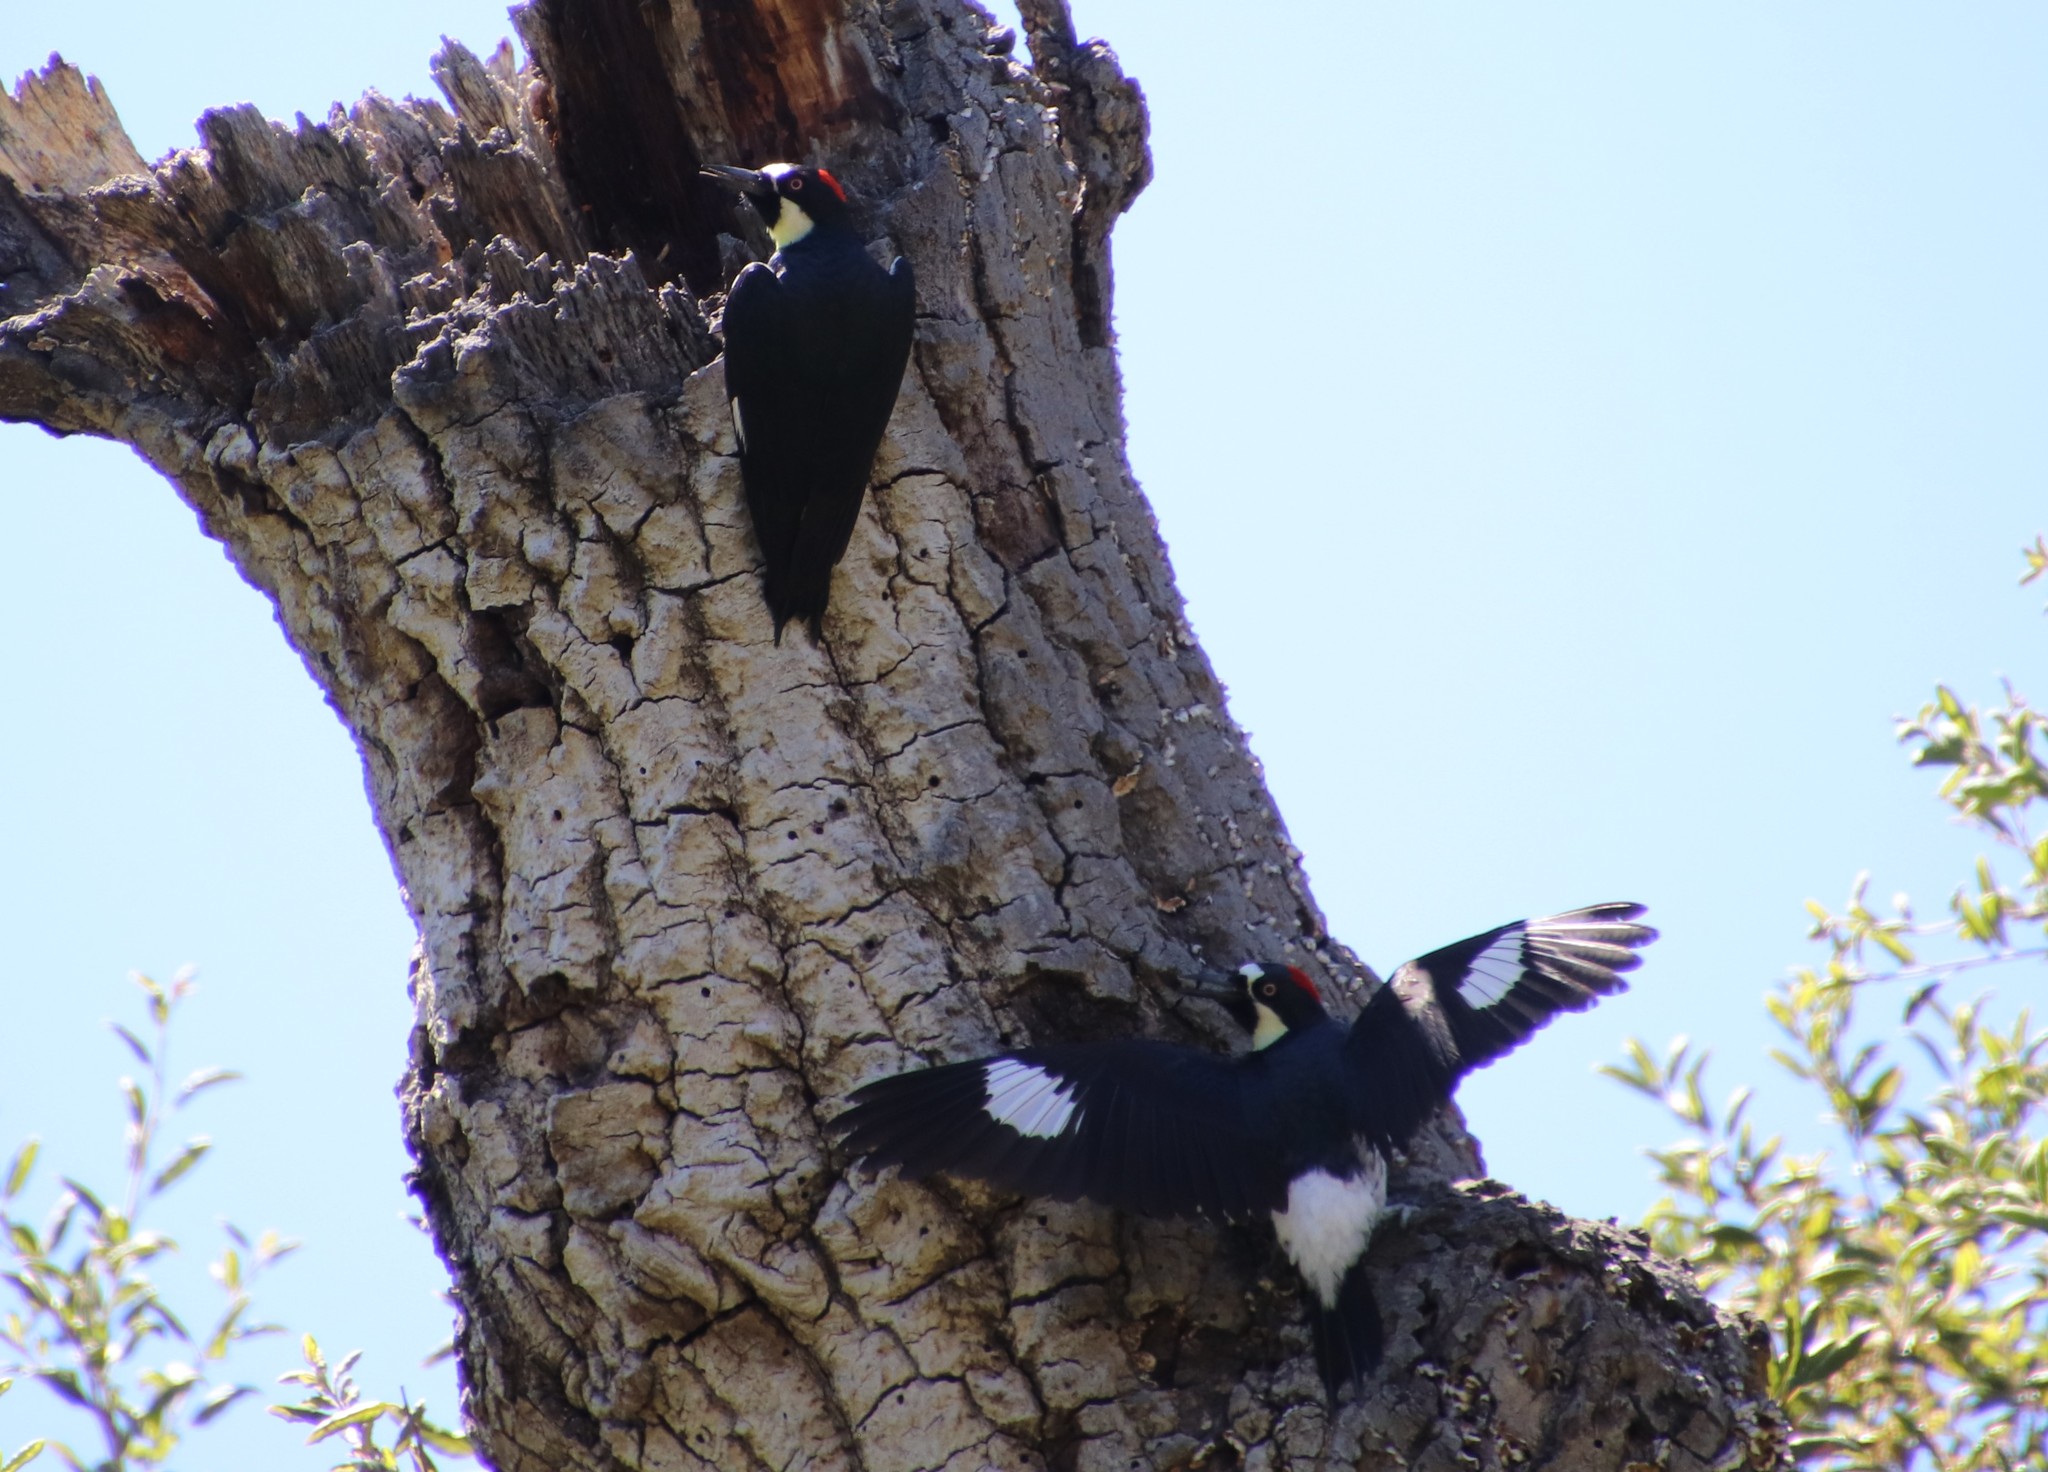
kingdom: Animalia
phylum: Chordata
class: Aves
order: Piciformes
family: Picidae
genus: Melanerpes
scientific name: Melanerpes formicivorus
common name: Acorn woodpecker
